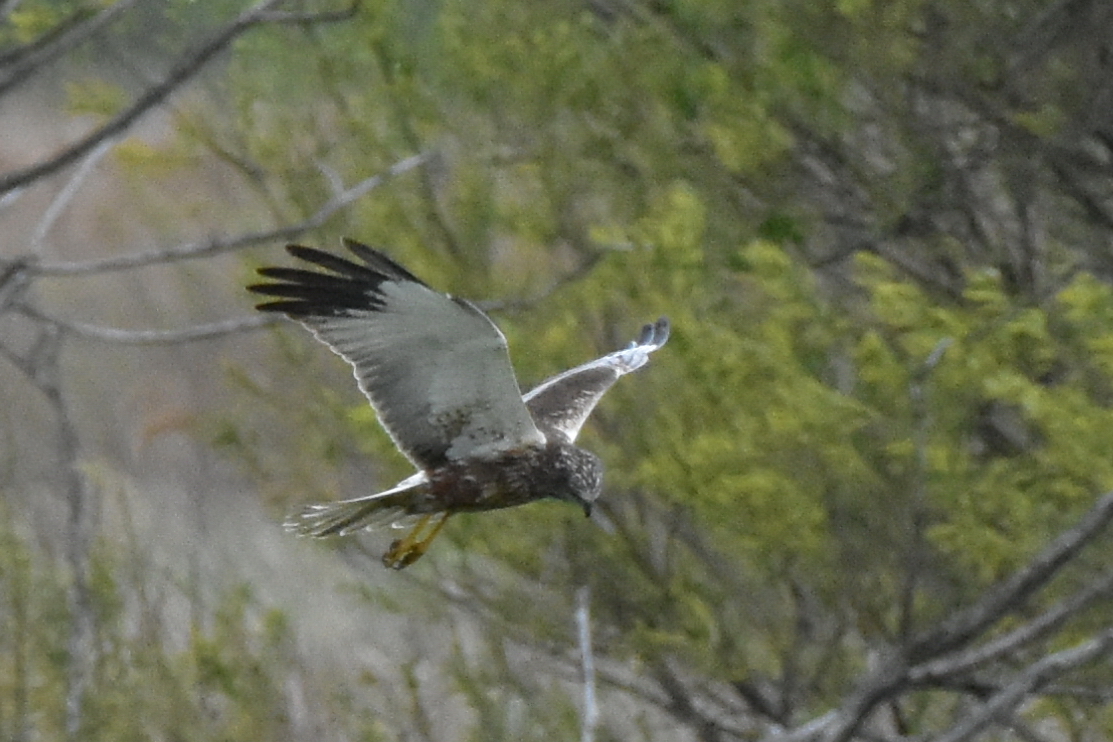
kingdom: Animalia
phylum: Chordata
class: Aves
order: Accipitriformes
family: Accipitridae
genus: Circus
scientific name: Circus aeruginosus
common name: Western marsh harrier
